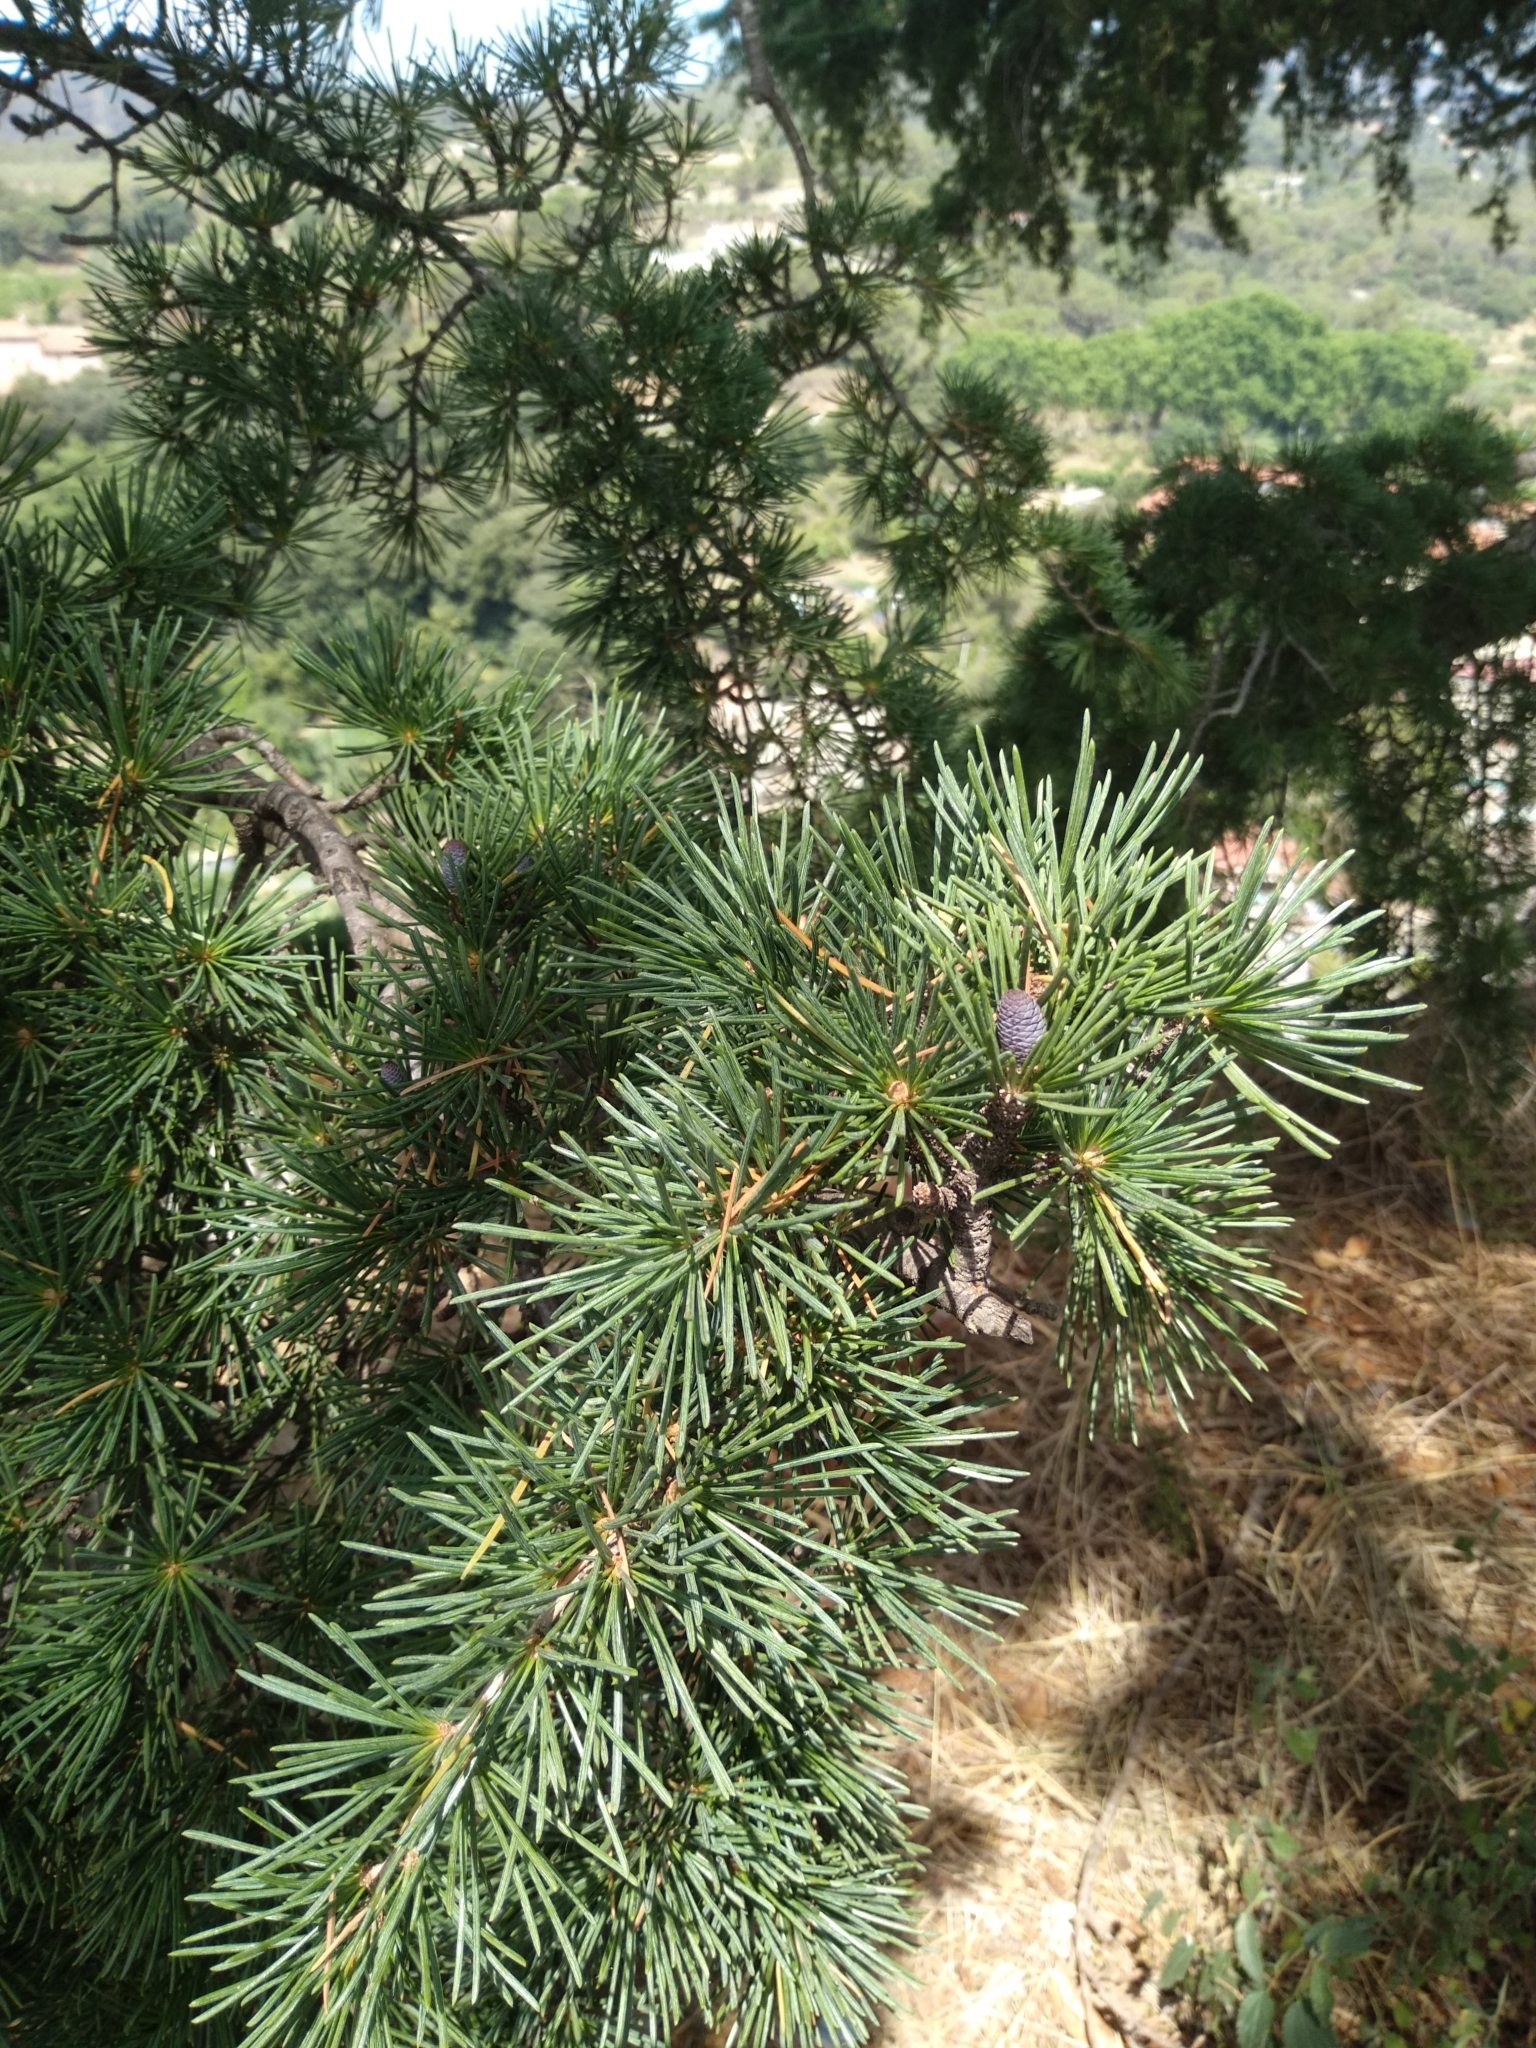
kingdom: Plantae
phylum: Tracheophyta
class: Pinopsida
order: Pinales
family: Pinaceae
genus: Cedrus
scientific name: Cedrus deodara
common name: Deodar
